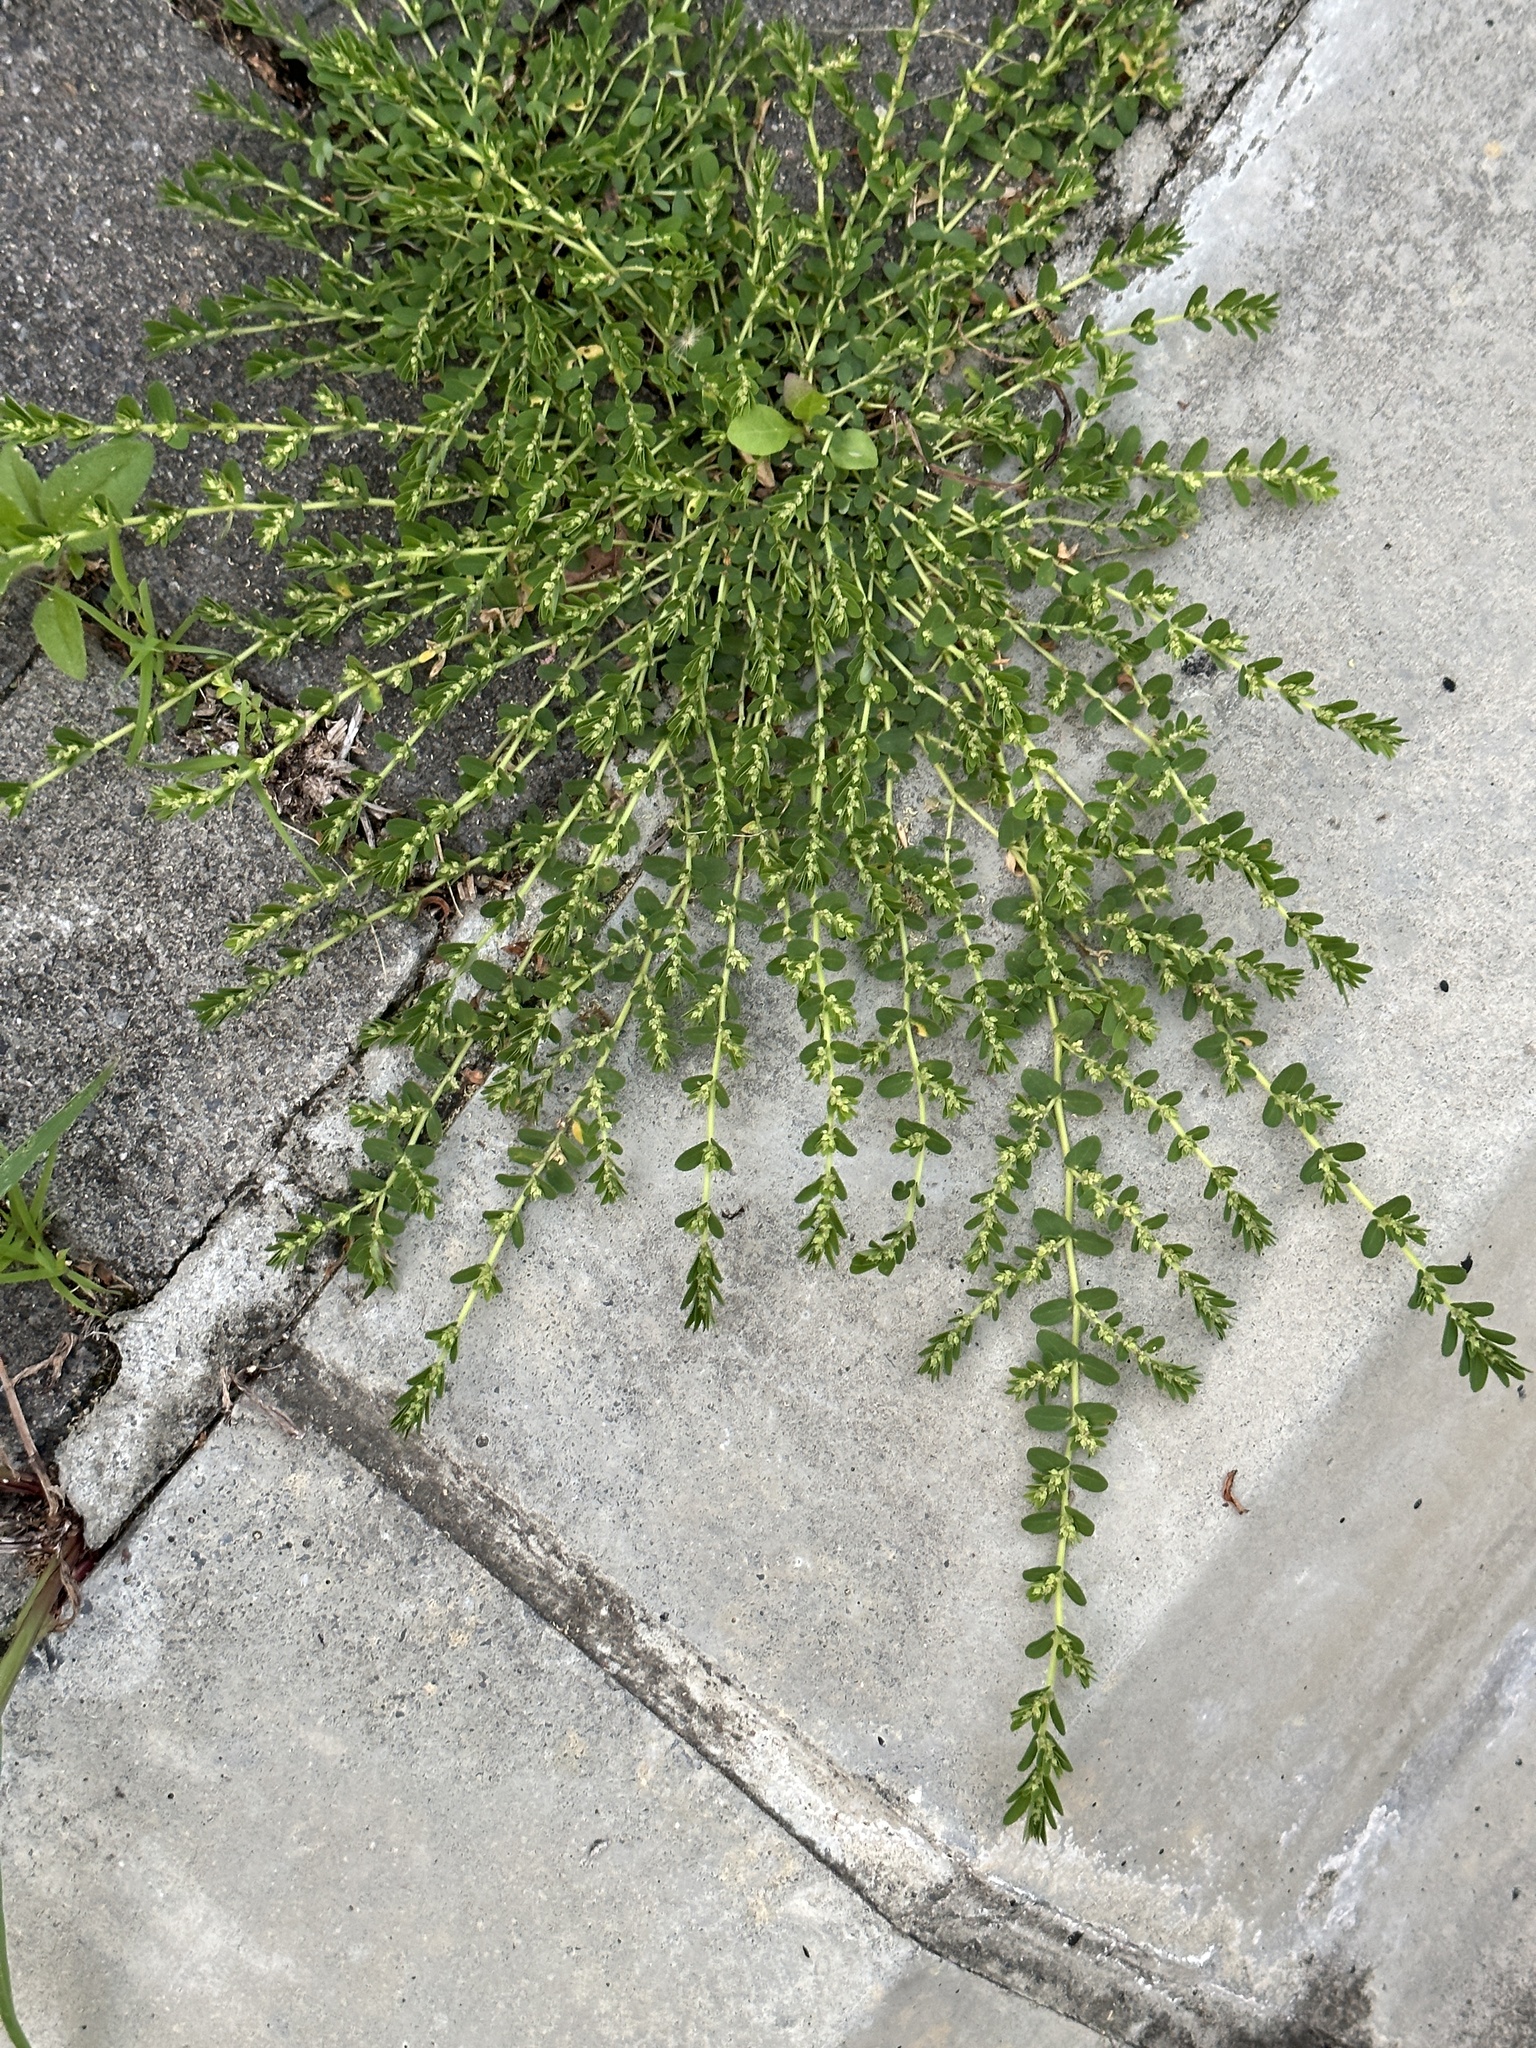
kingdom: Plantae
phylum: Tracheophyta
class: Magnoliopsida
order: Malpighiales
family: Euphorbiaceae
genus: Euphorbia
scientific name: Euphorbia thymifolia
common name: Gulf sandmat
